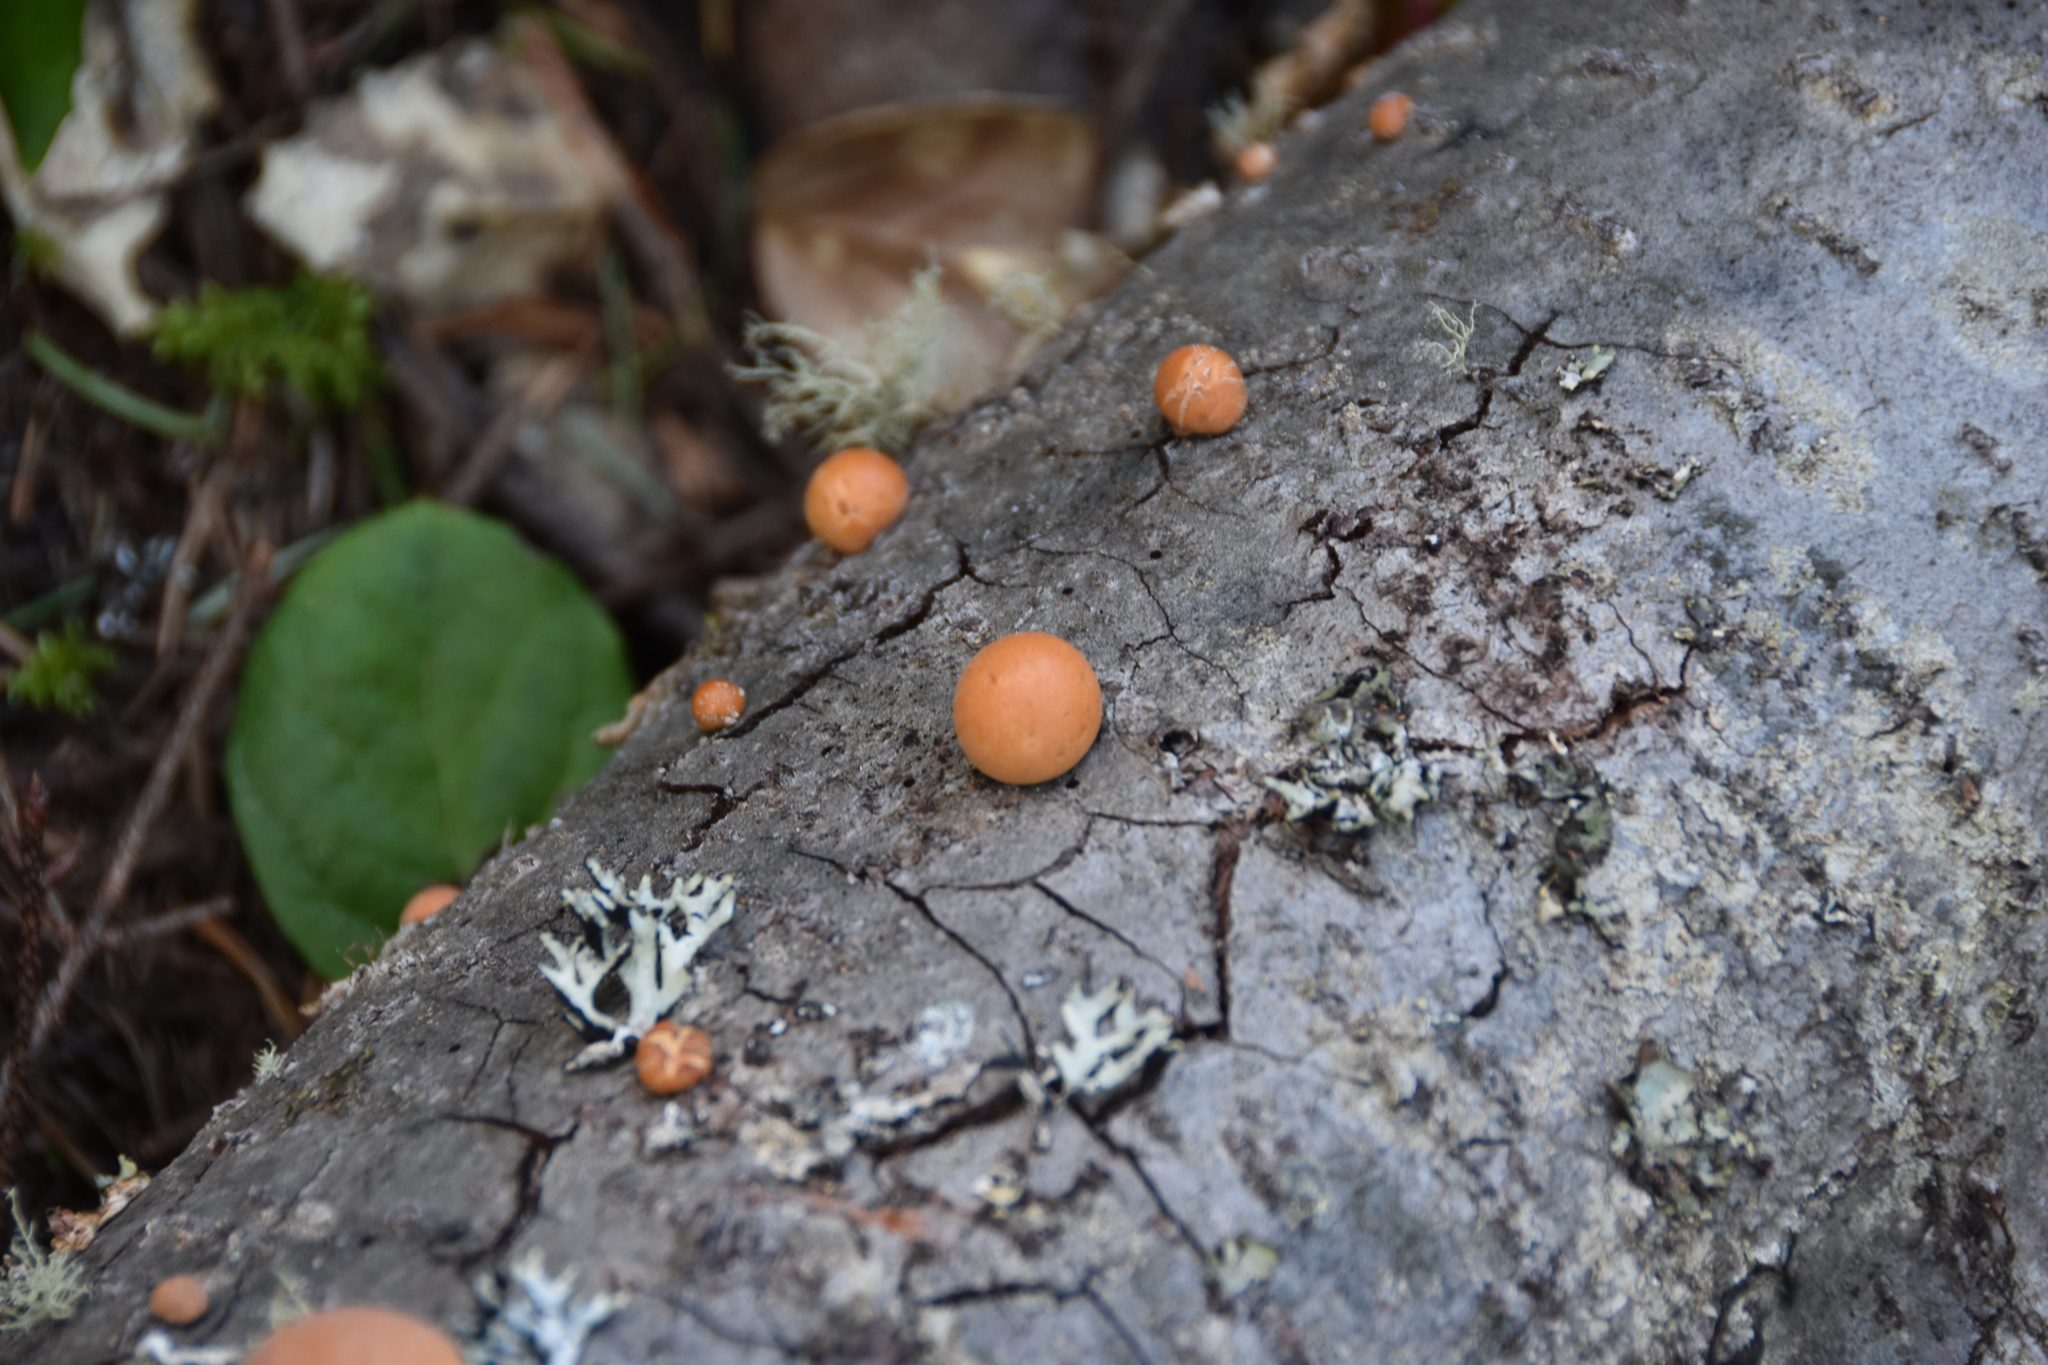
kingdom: Fungi
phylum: Basidiomycota
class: Agaricomycetes
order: Polyporales
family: Polyporaceae
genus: Cryptoporus
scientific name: Cryptoporus volvatus
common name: Veiled polypore
